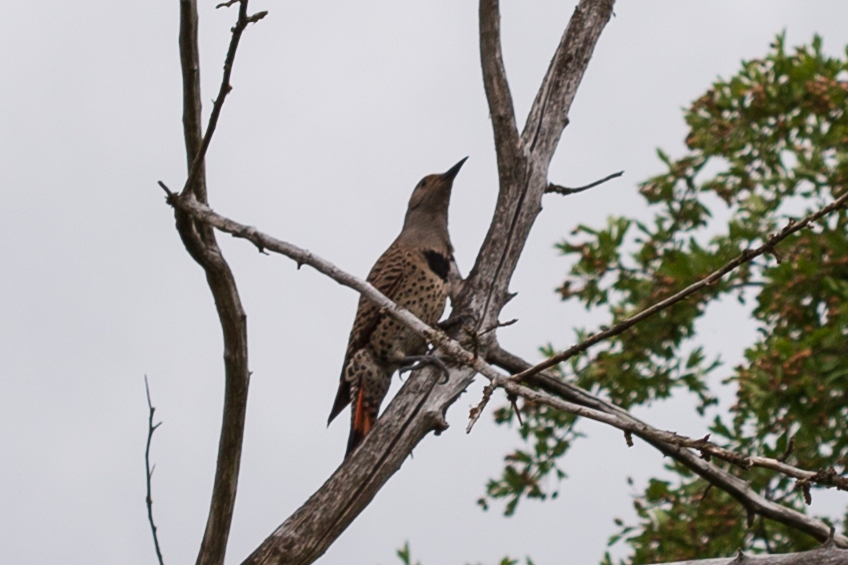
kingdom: Animalia
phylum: Chordata
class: Aves
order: Piciformes
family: Picidae
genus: Colaptes
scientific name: Colaptes auratus
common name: Northern flicker
